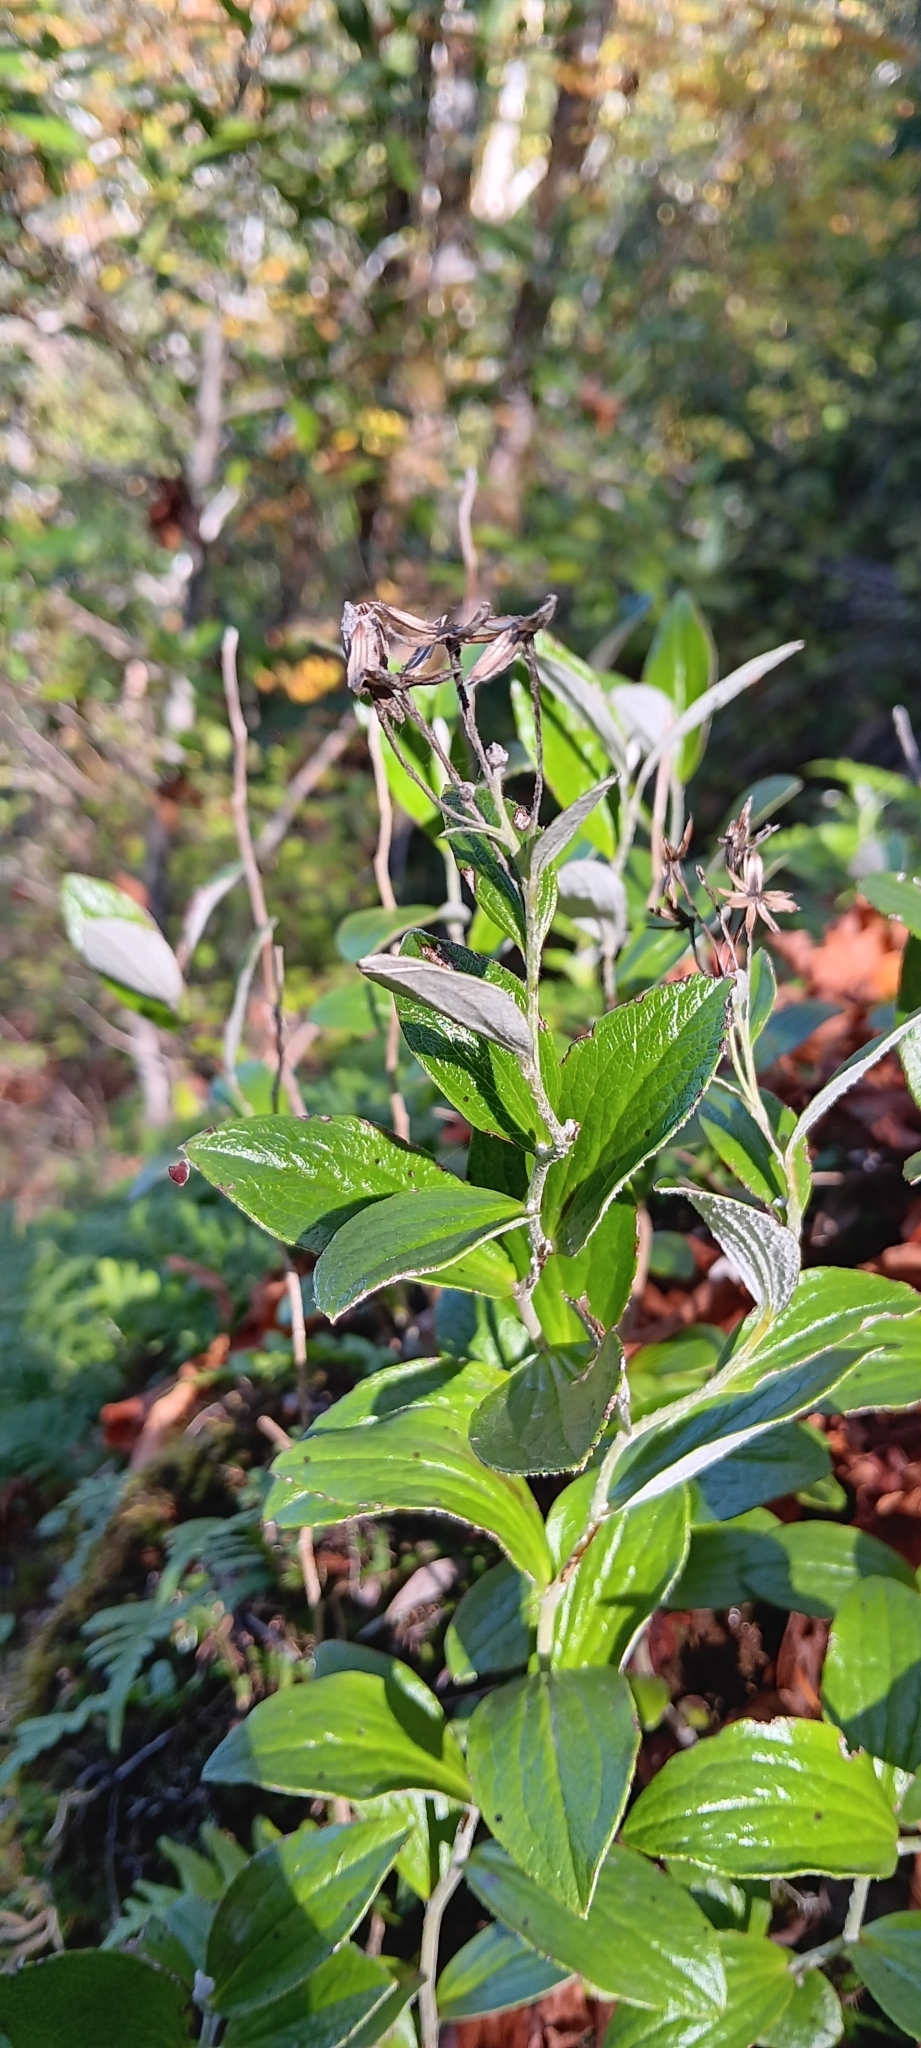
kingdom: Plantae
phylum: Tracheophyta
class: Magnoliopsida
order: Asterales
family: Asteraceae
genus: Luina
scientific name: Luina hypoleuca
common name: Little-leaved luina
